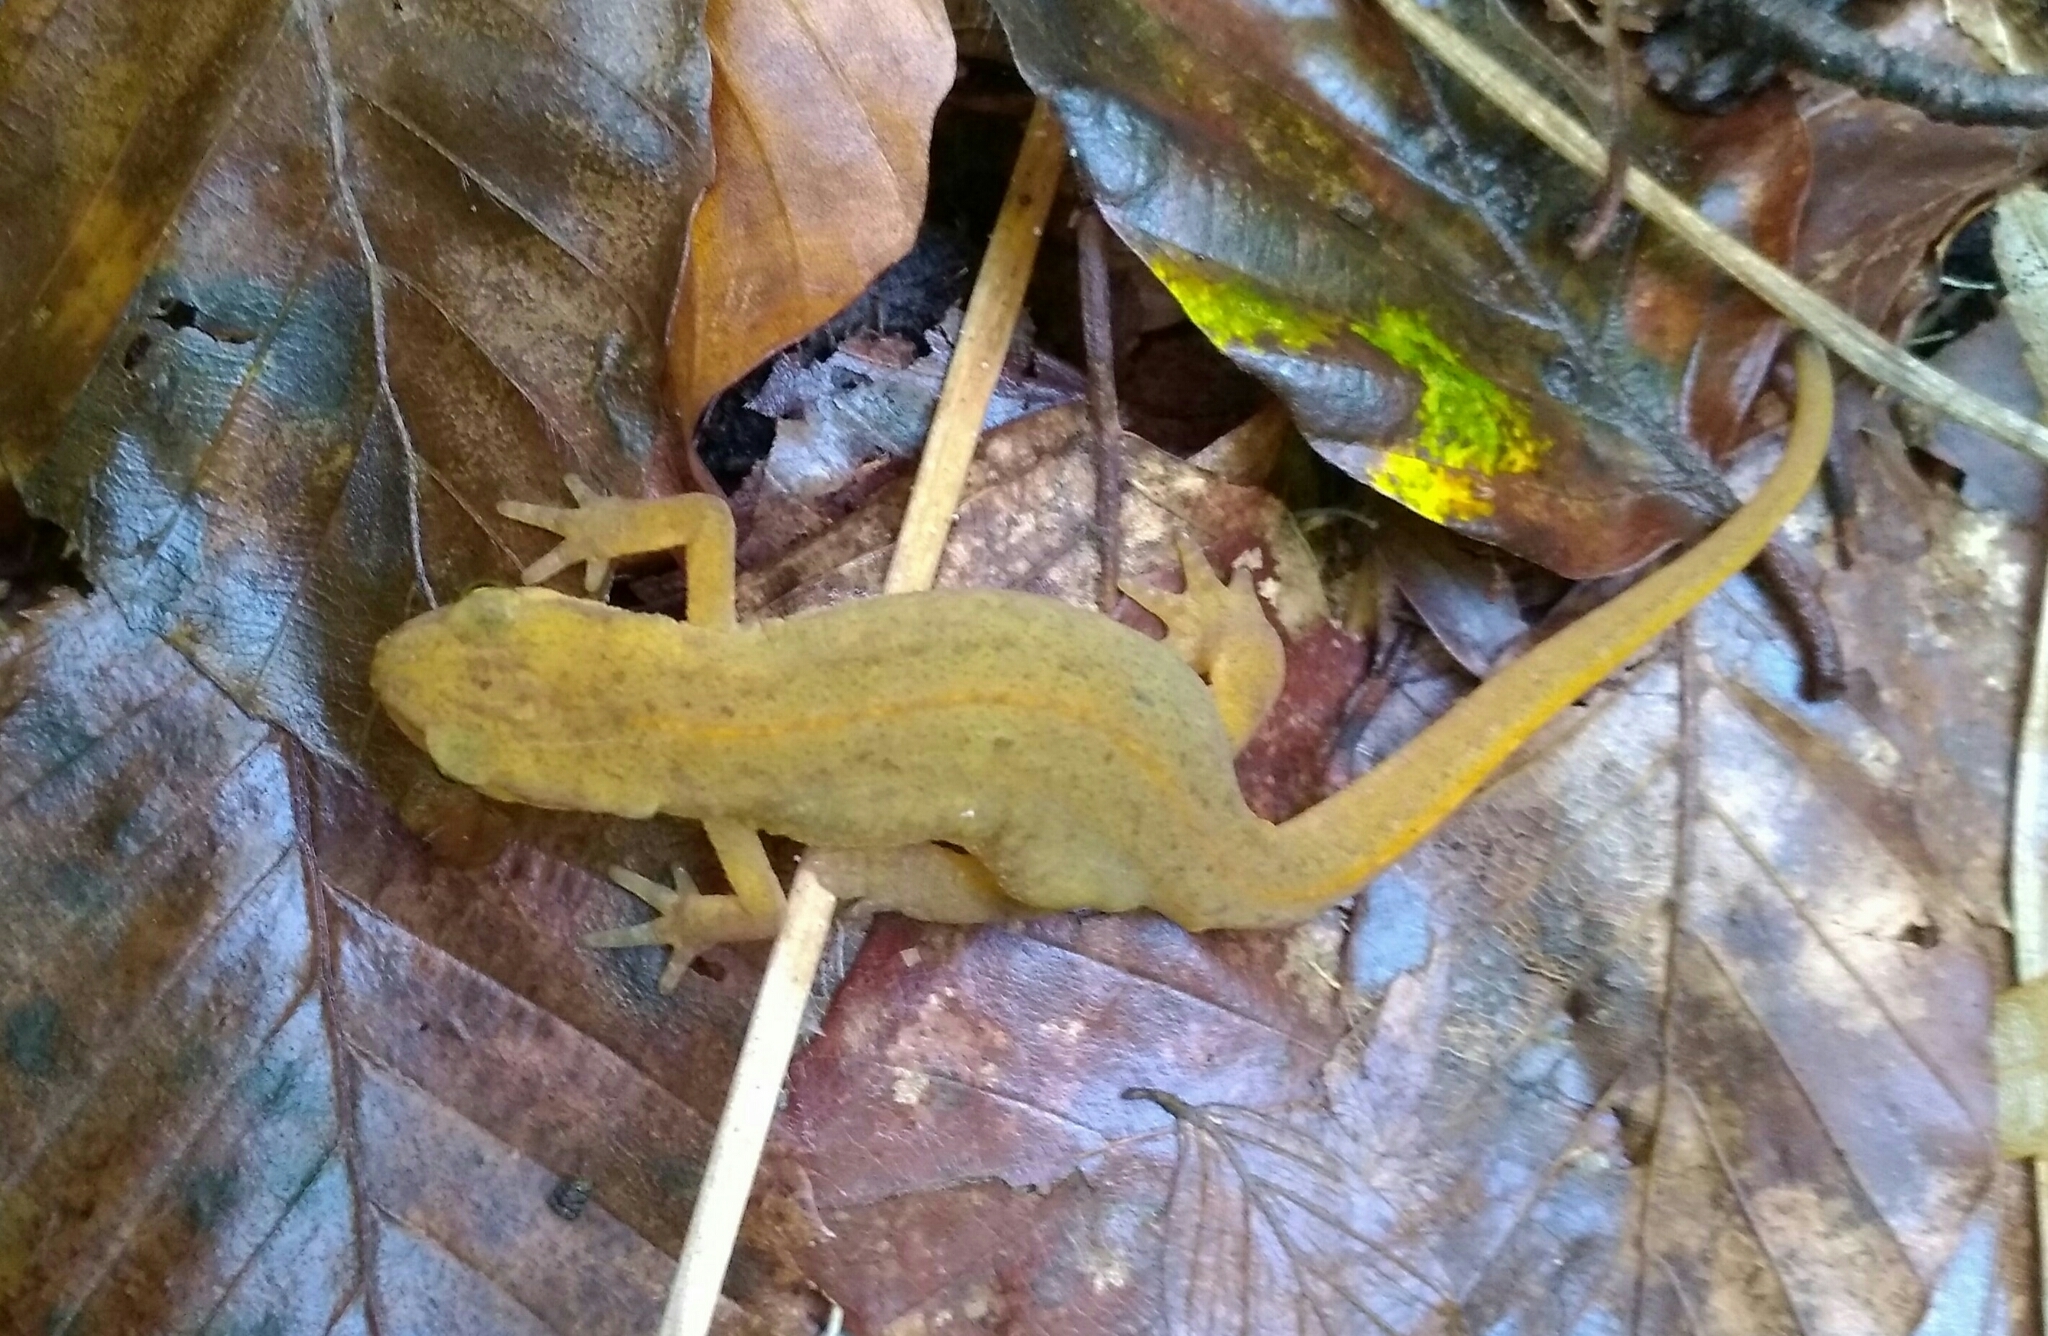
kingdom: Animalia
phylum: Chordata
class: Amphibia
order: Caudata
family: Salamandridae
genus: Lissotriton
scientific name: Lissotriton helveticus
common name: Palmate newt
